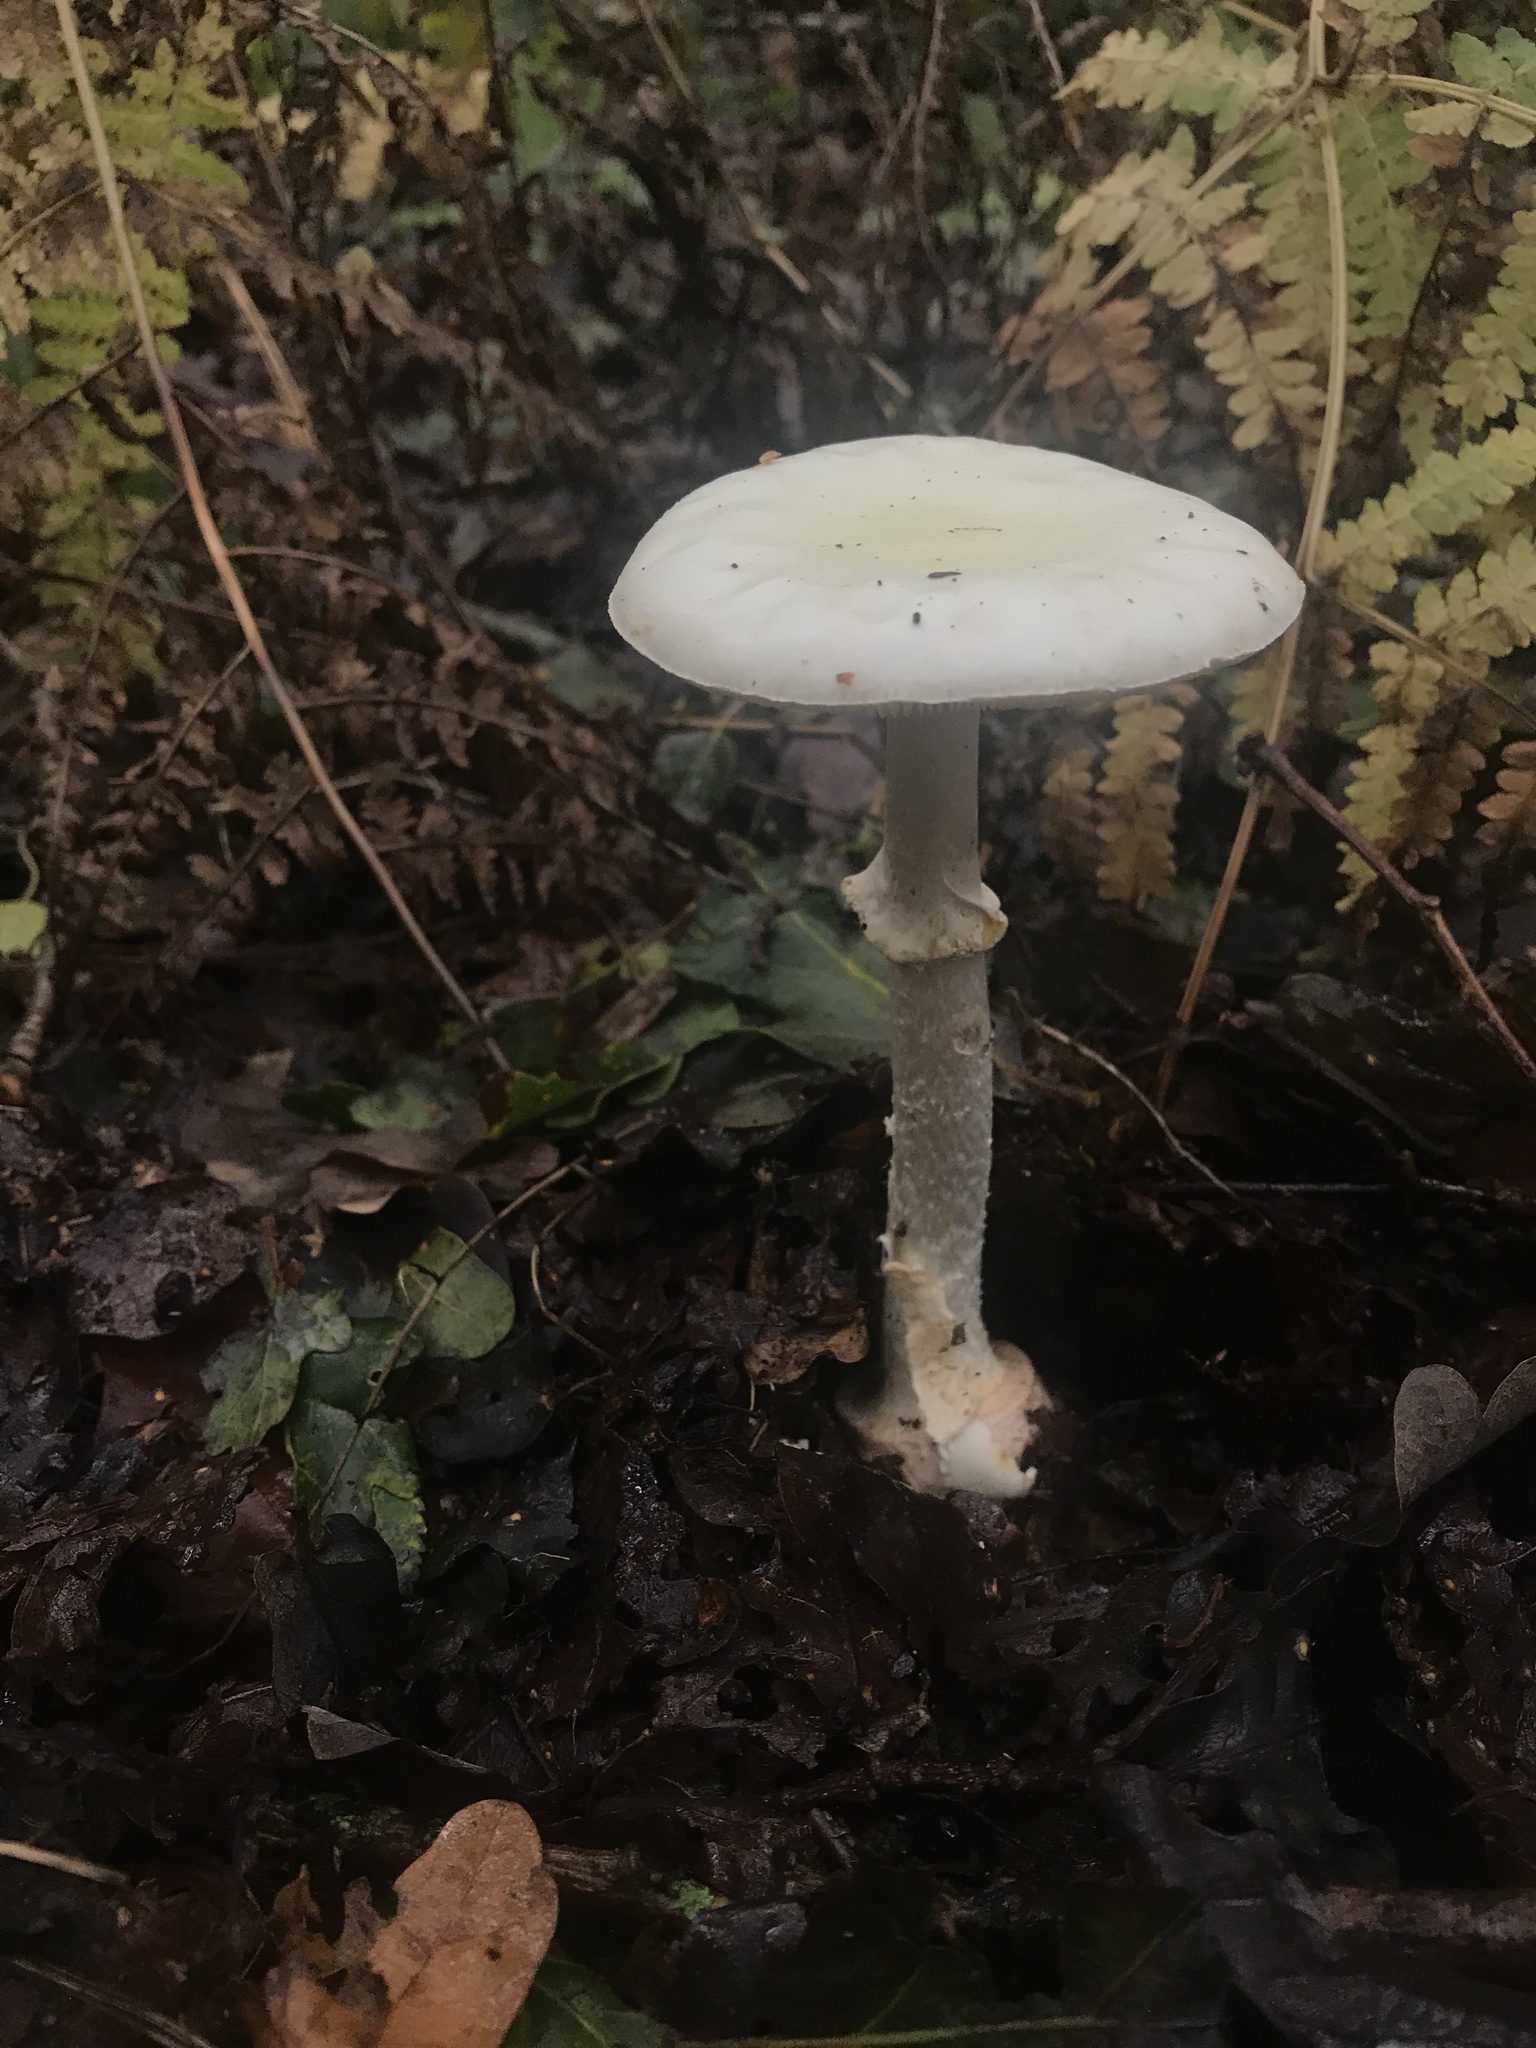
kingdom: Fungi
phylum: Basidiomycota
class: Agaricomycetes
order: Agaricales
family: Amanitaceae
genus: Amanita
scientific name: Amanita citrina
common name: False death-cap
